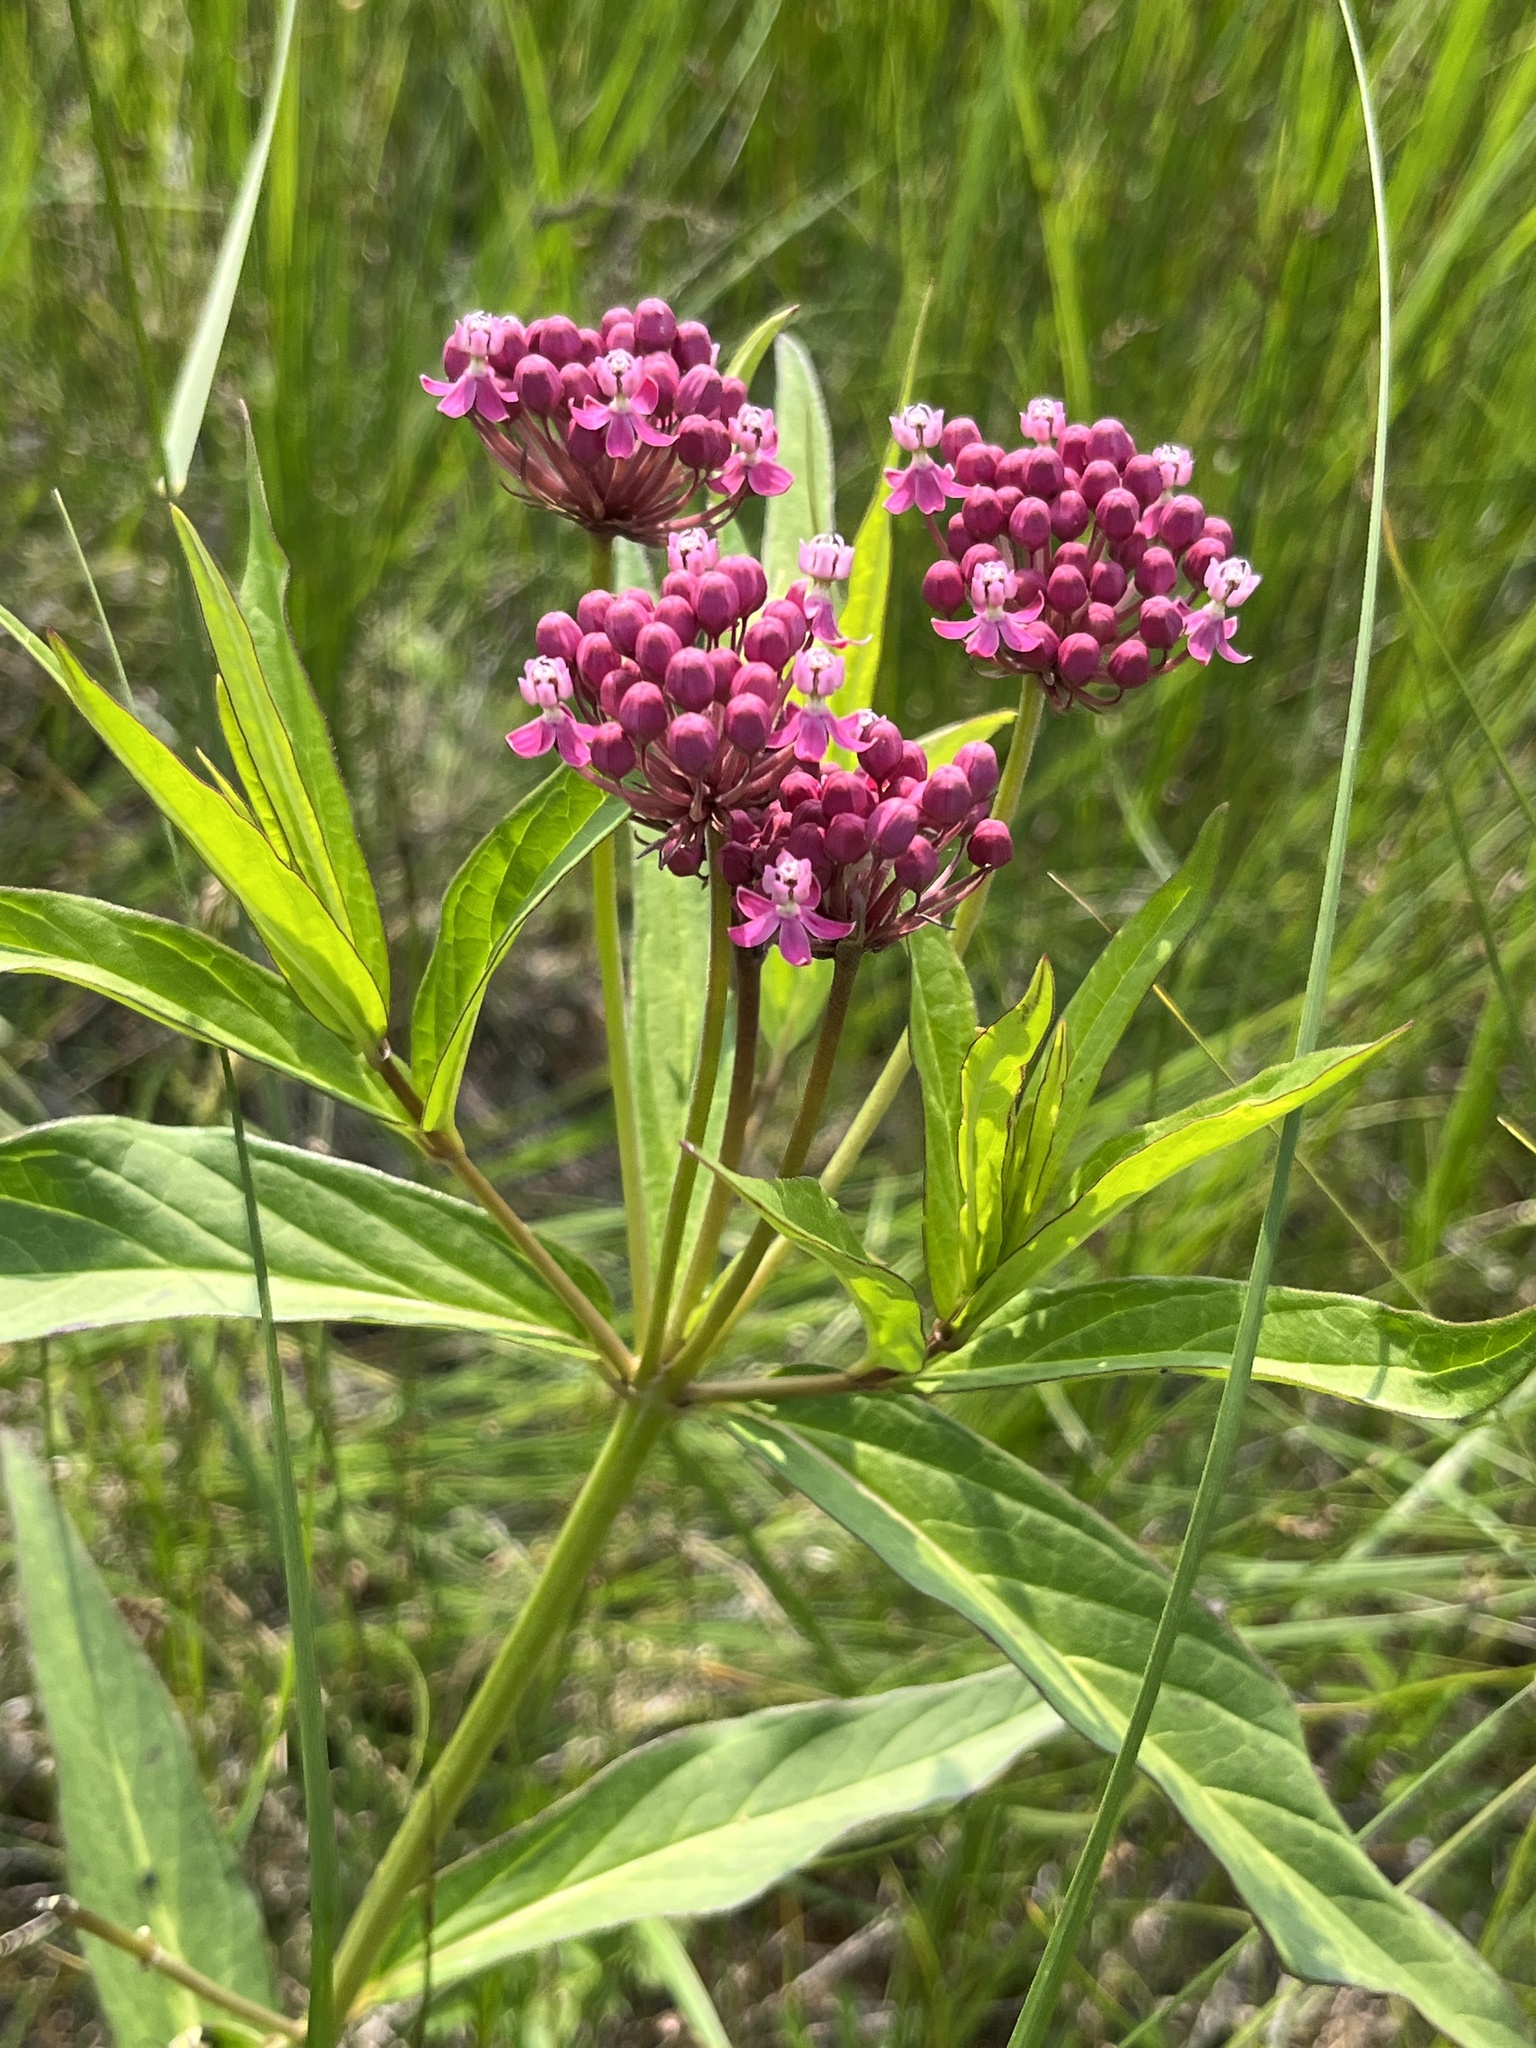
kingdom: Plantae
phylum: Tracheophyta
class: Magnoliopsida
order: Gentianales
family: Apocynaceae
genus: Asclepias
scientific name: Asclepias incarnata
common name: Swamp milkweed
